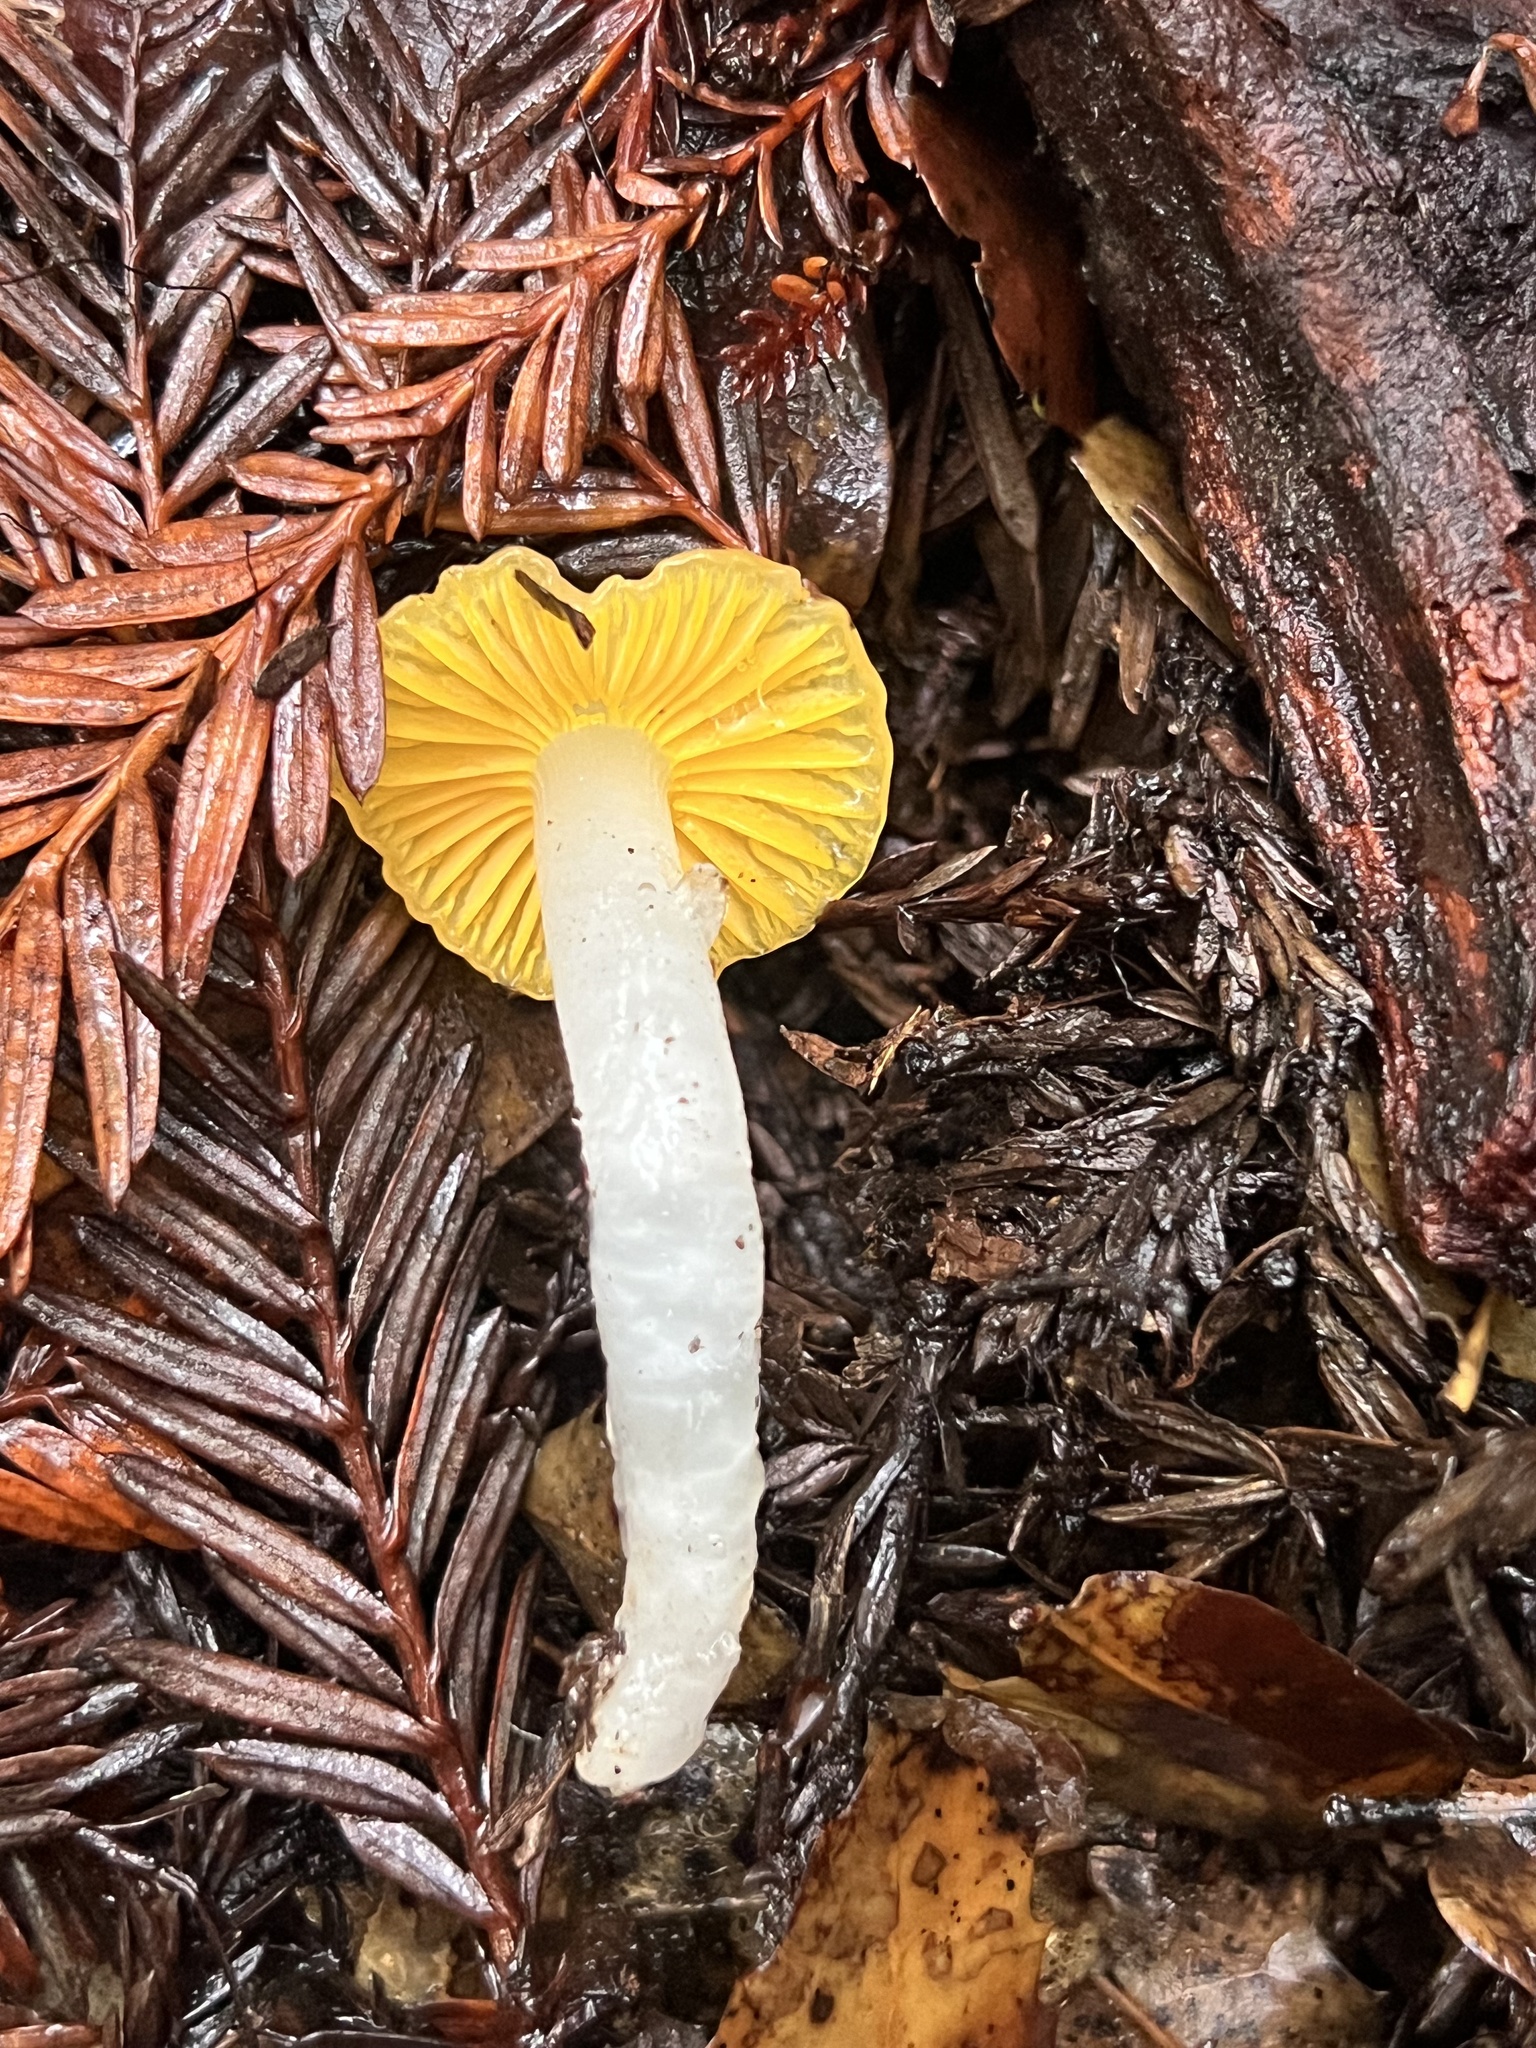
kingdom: Fungi
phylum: Basidiomycota
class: Agaricomycetes
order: Agaricales
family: Hygrophoraceae
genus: Hygrocybe
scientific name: Hygrocybe flavifolia
